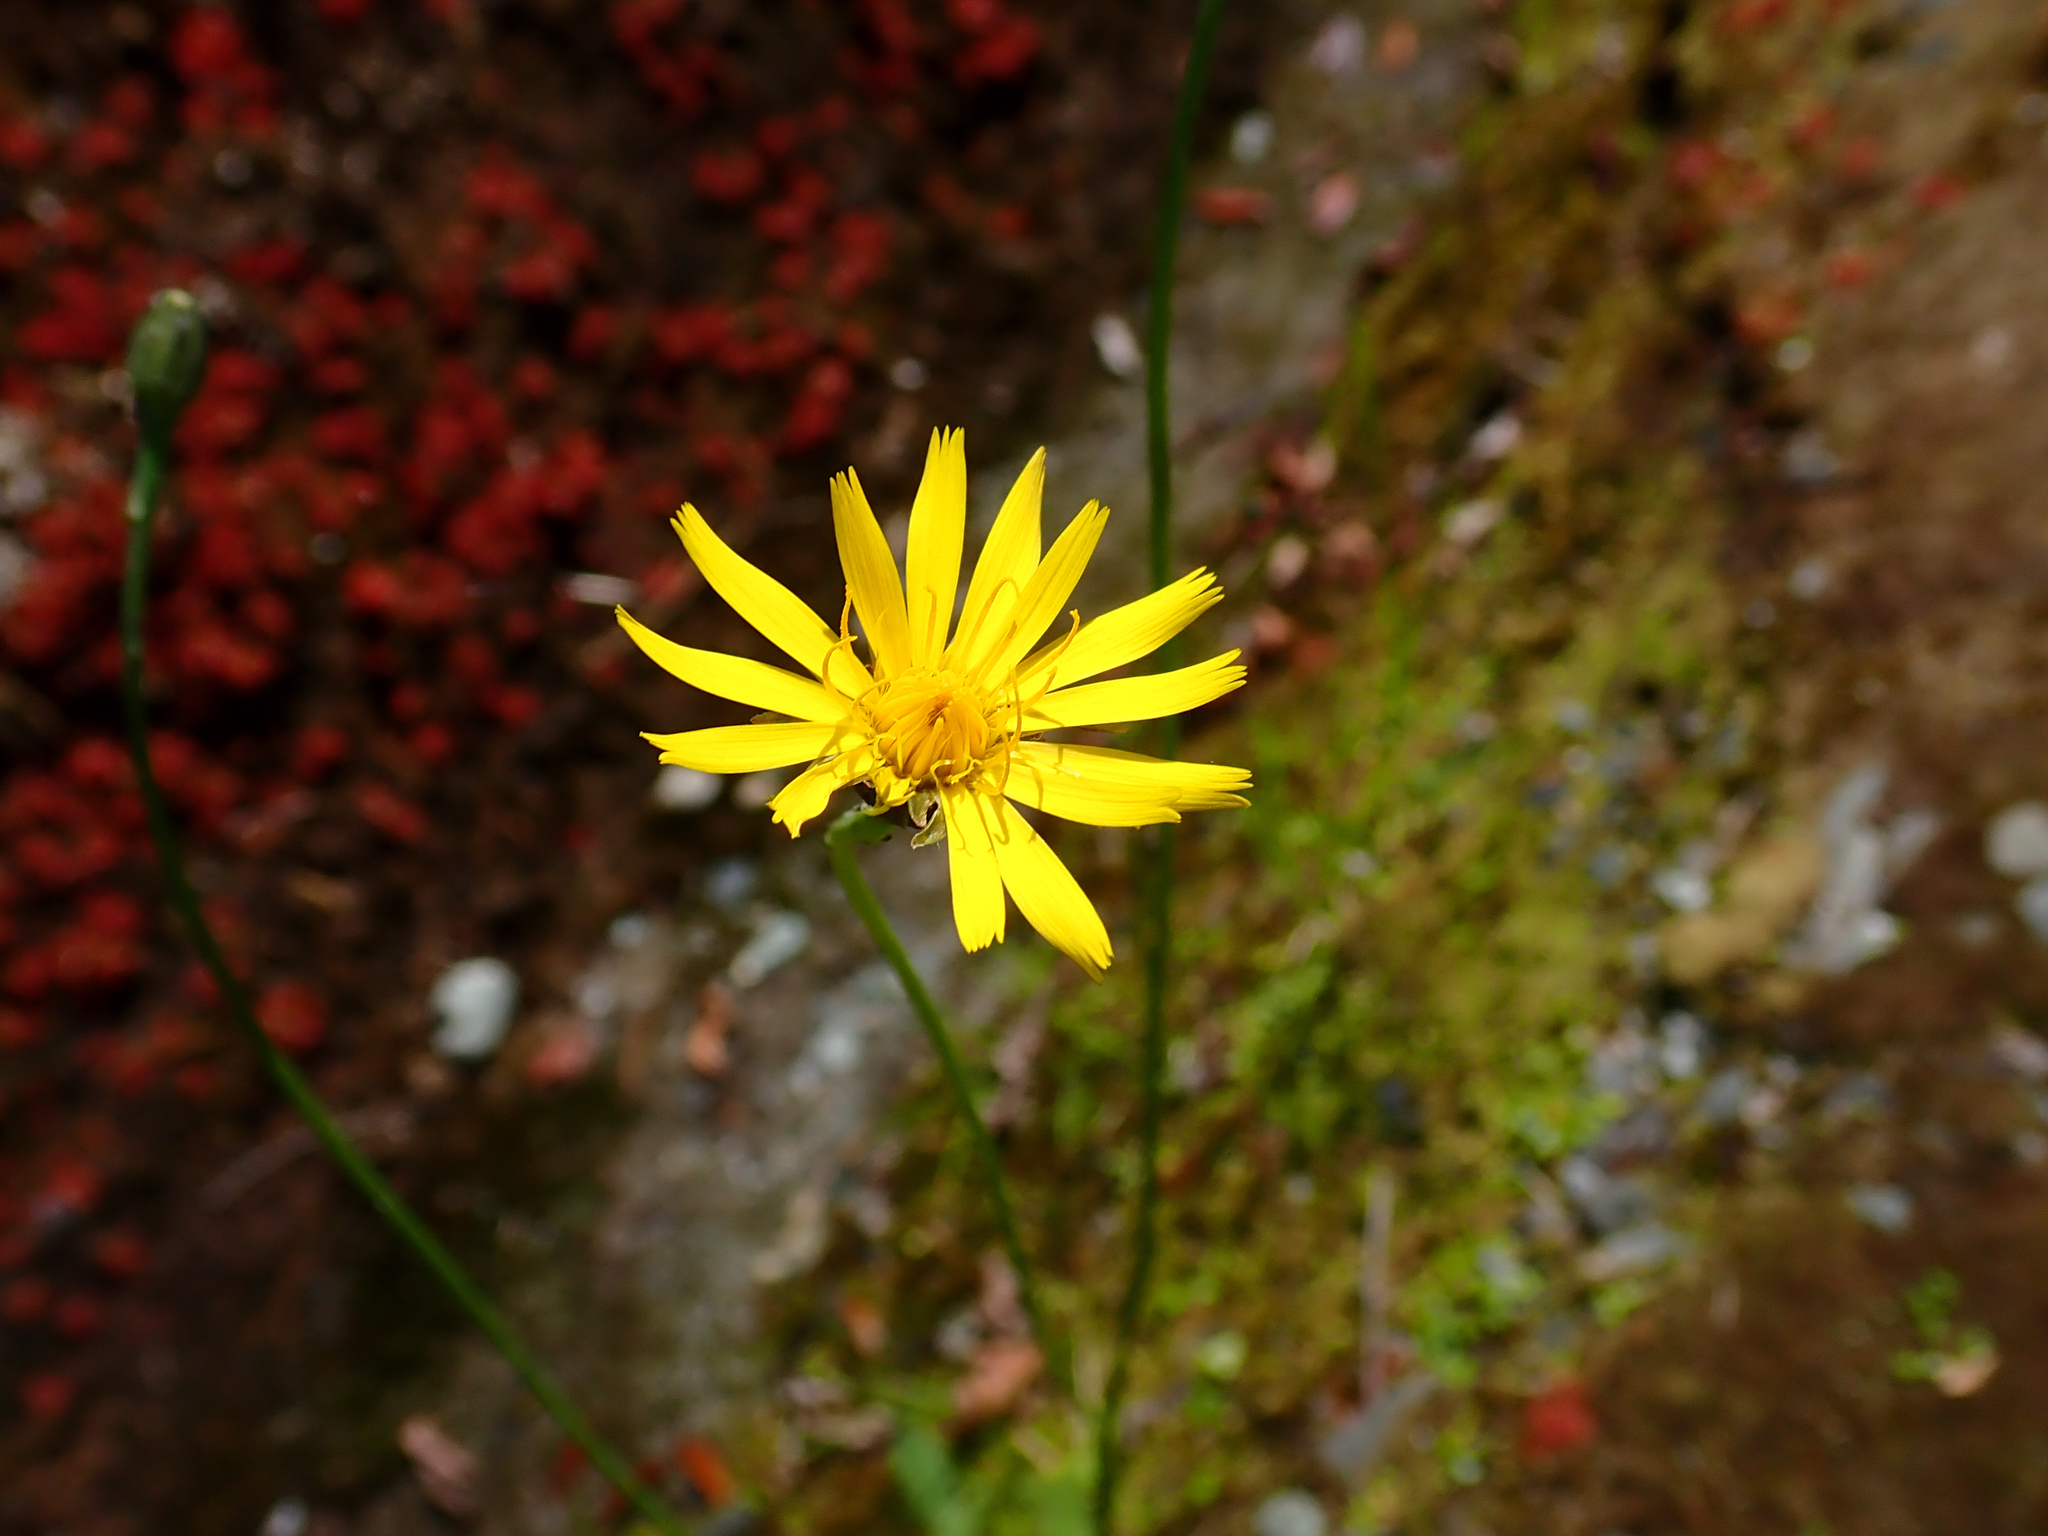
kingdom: Plantae
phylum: Tracheophyta
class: Magnoliopsida
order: Asterales
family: Asteraceae
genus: Hypochaeris
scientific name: Hypochaeris radicata
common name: Flatweed
